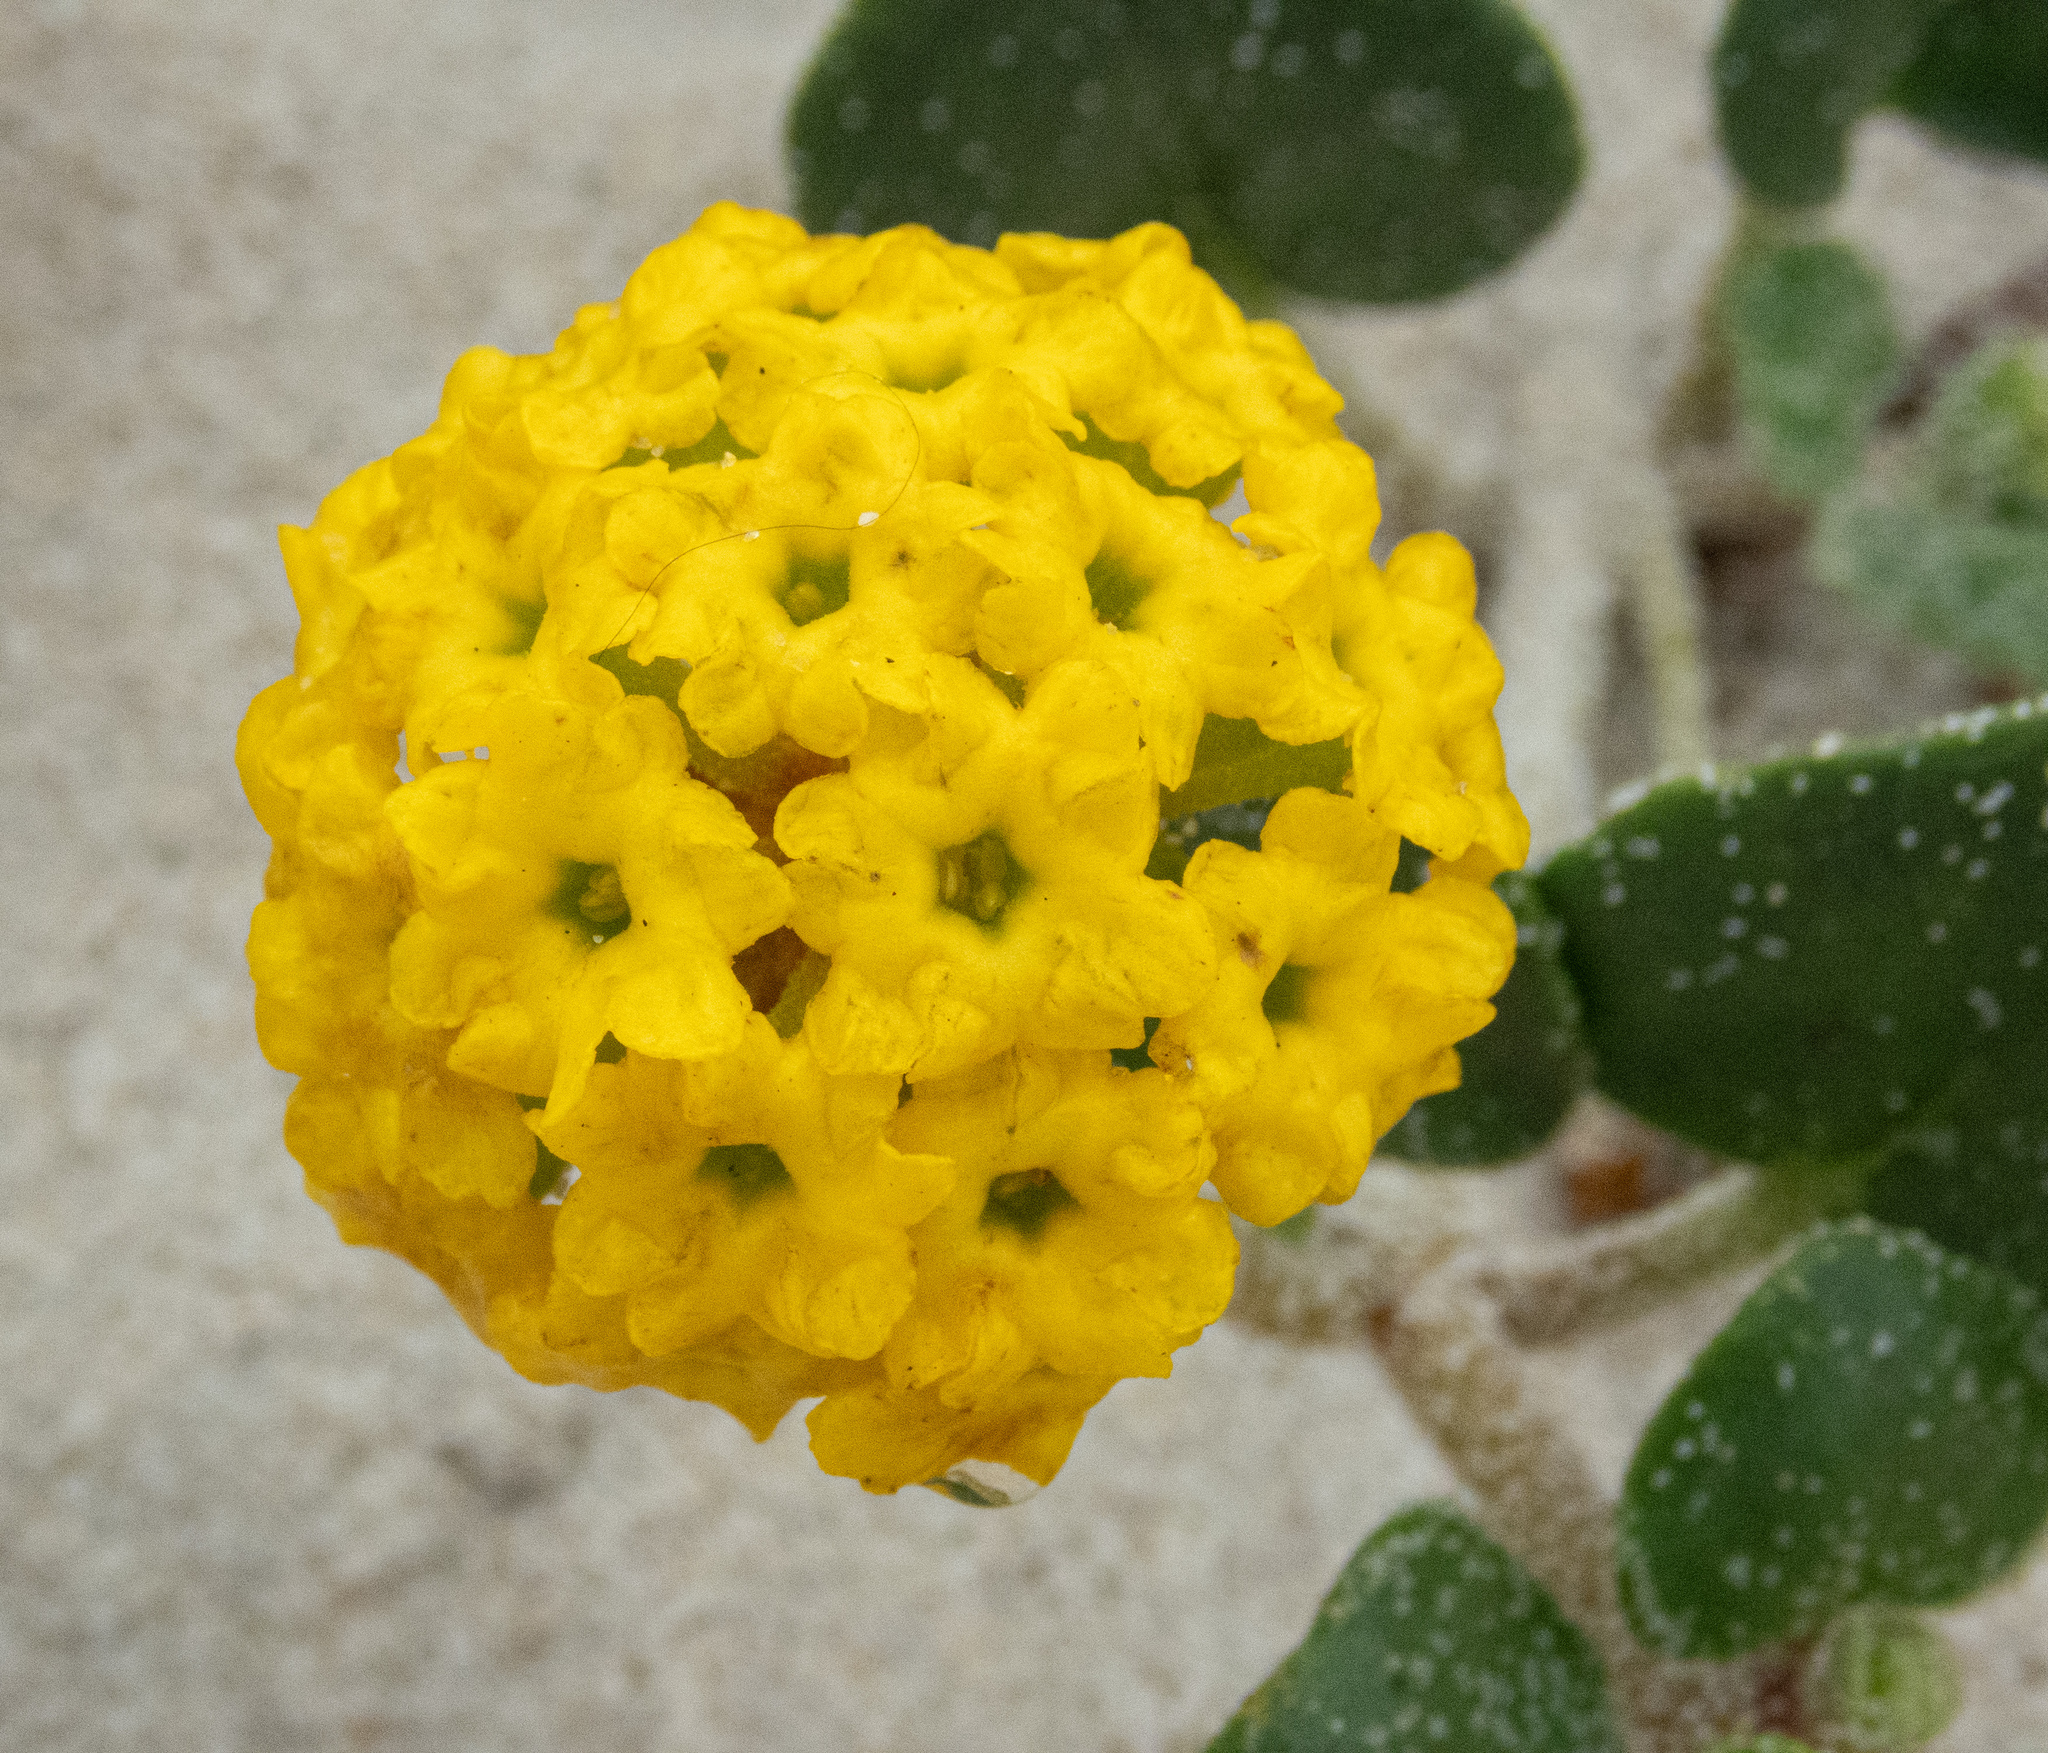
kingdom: Plantae
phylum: Tracheophyta
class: Magnoliopsida
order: Caryophyllales
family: Nyctaginaceae
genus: Abronia
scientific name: Abronia latifolia
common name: Yellow sand-verbena
